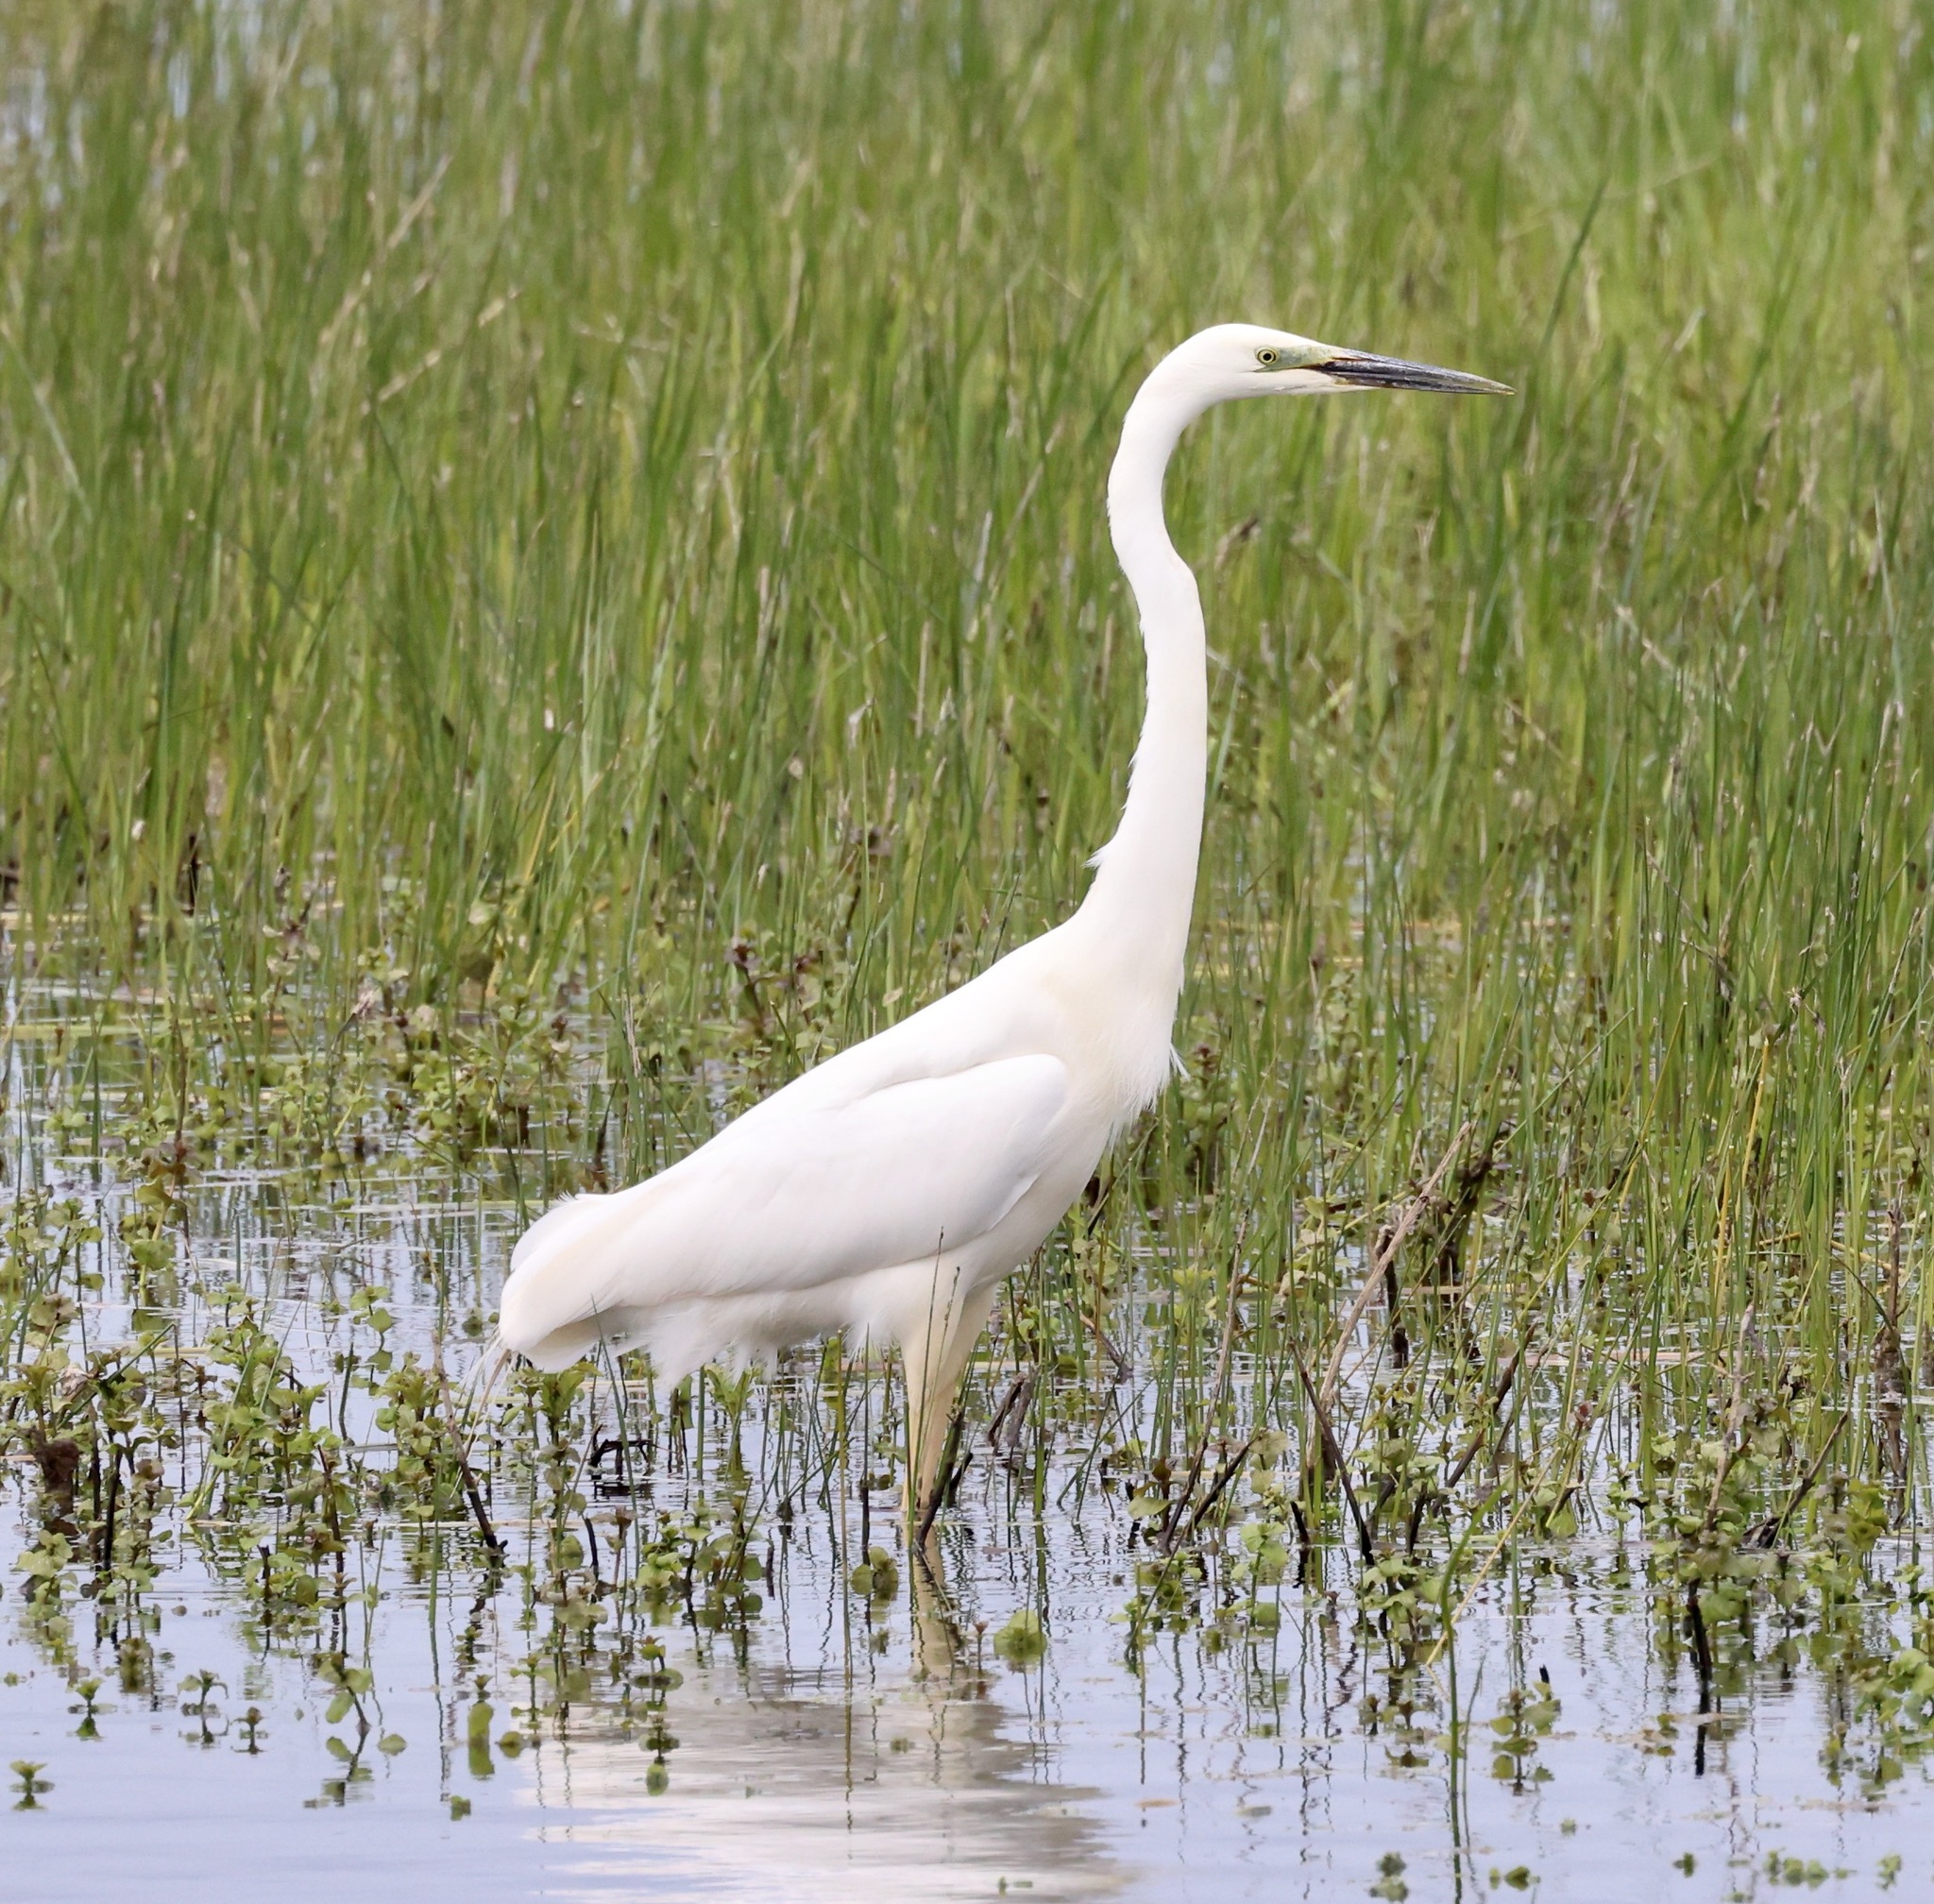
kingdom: Animalia
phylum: Chordata
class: Aves
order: Pelecaniformes
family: Ardeidae
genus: Ardea
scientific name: Ardea alba
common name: Great egret
